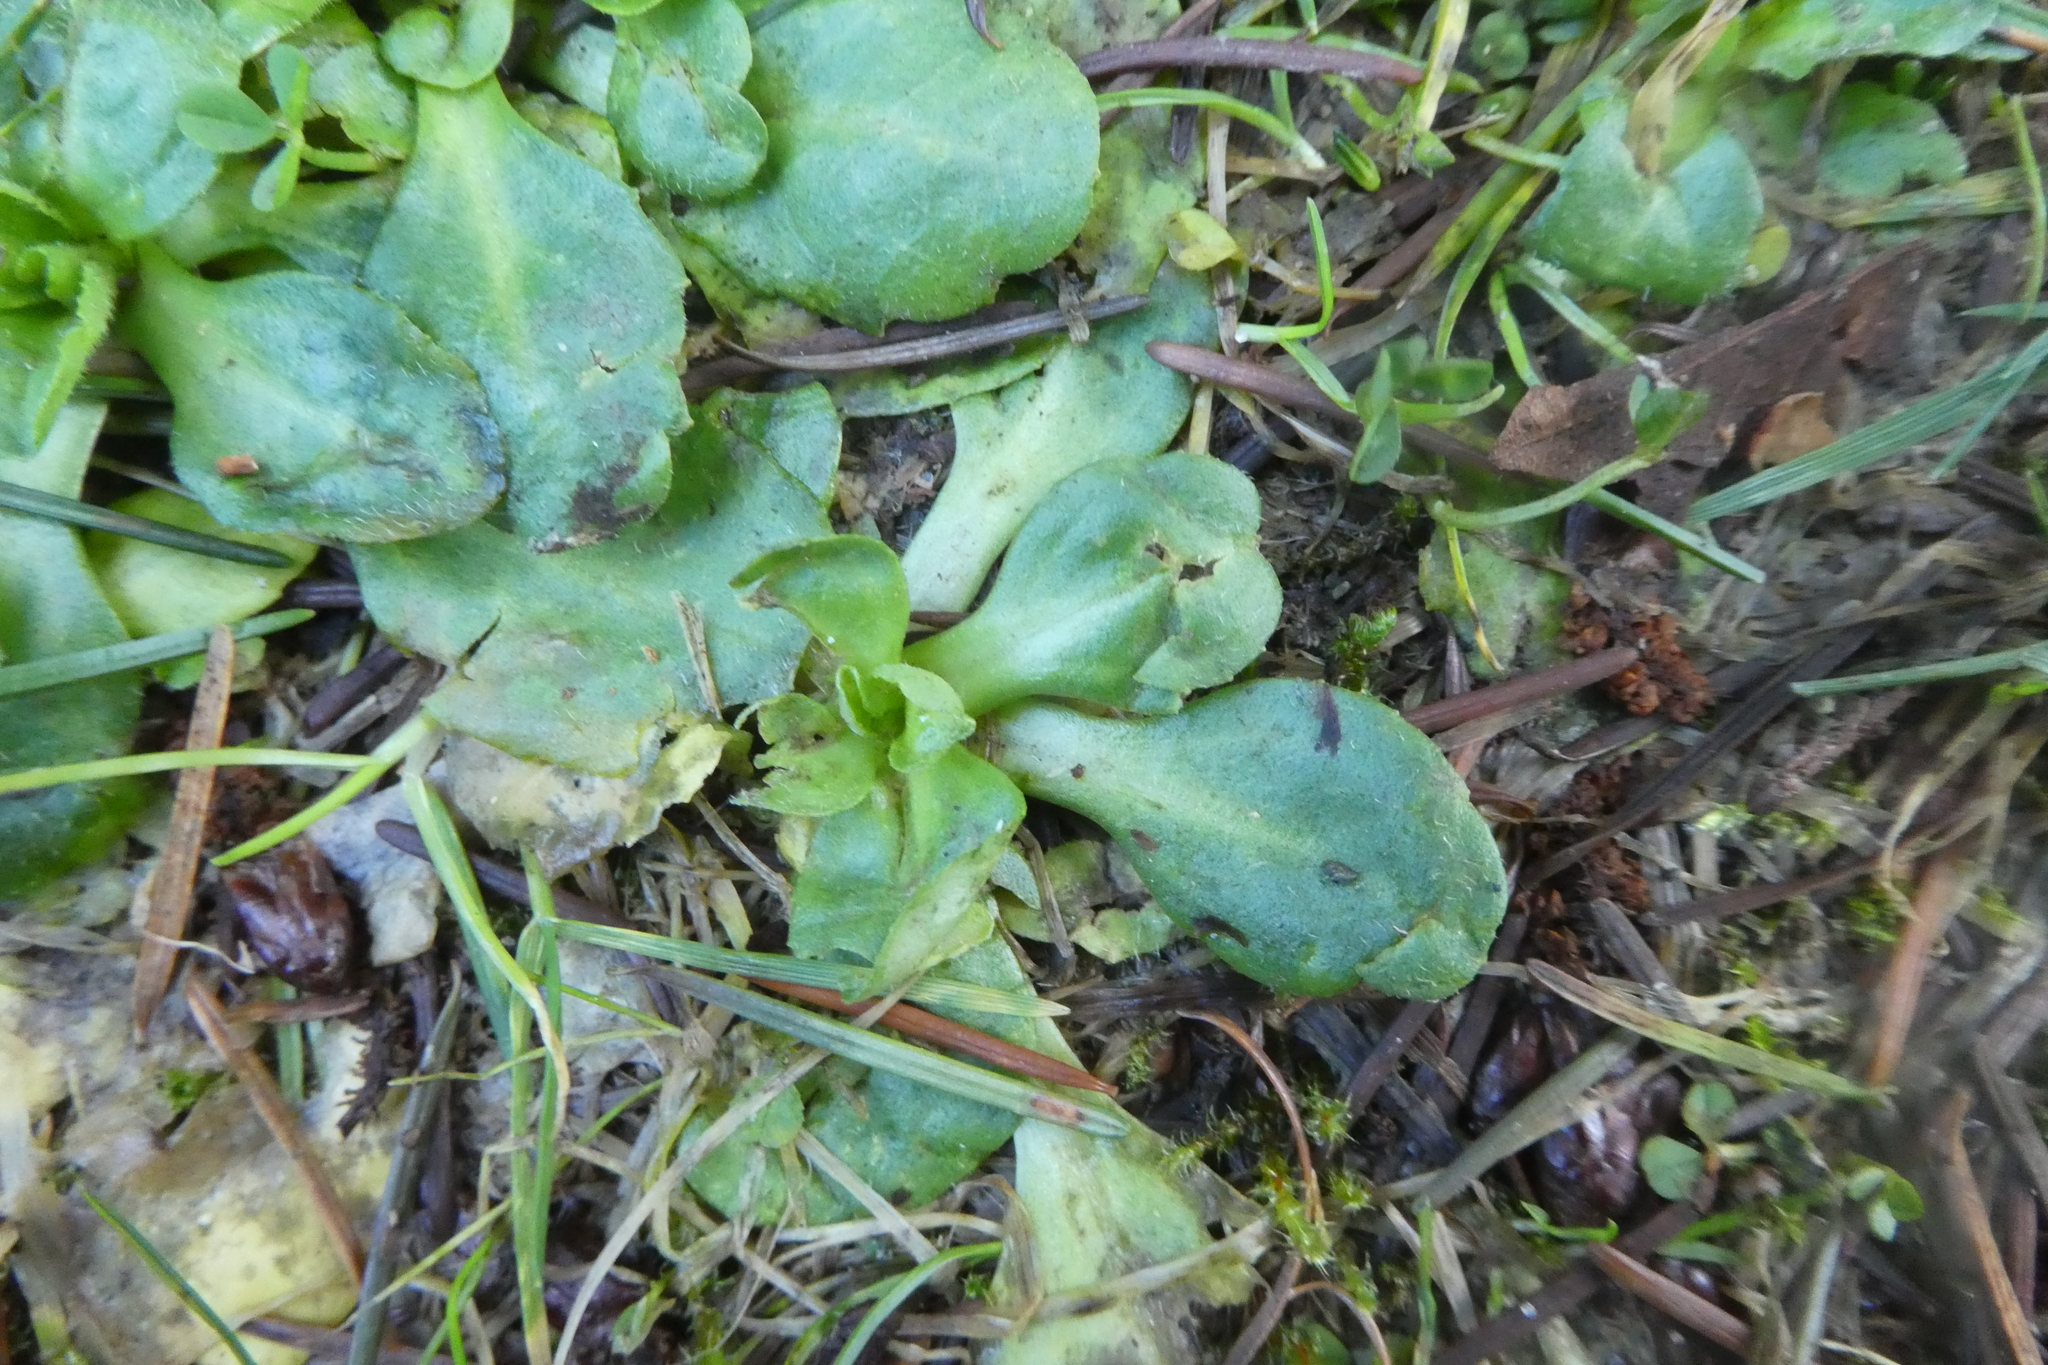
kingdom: Plantae
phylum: Tracheophyta
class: Magnoliopsida
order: Asterales
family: Asteraceae
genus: Bellis
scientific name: Bellis perennis
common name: Lawndaisy
